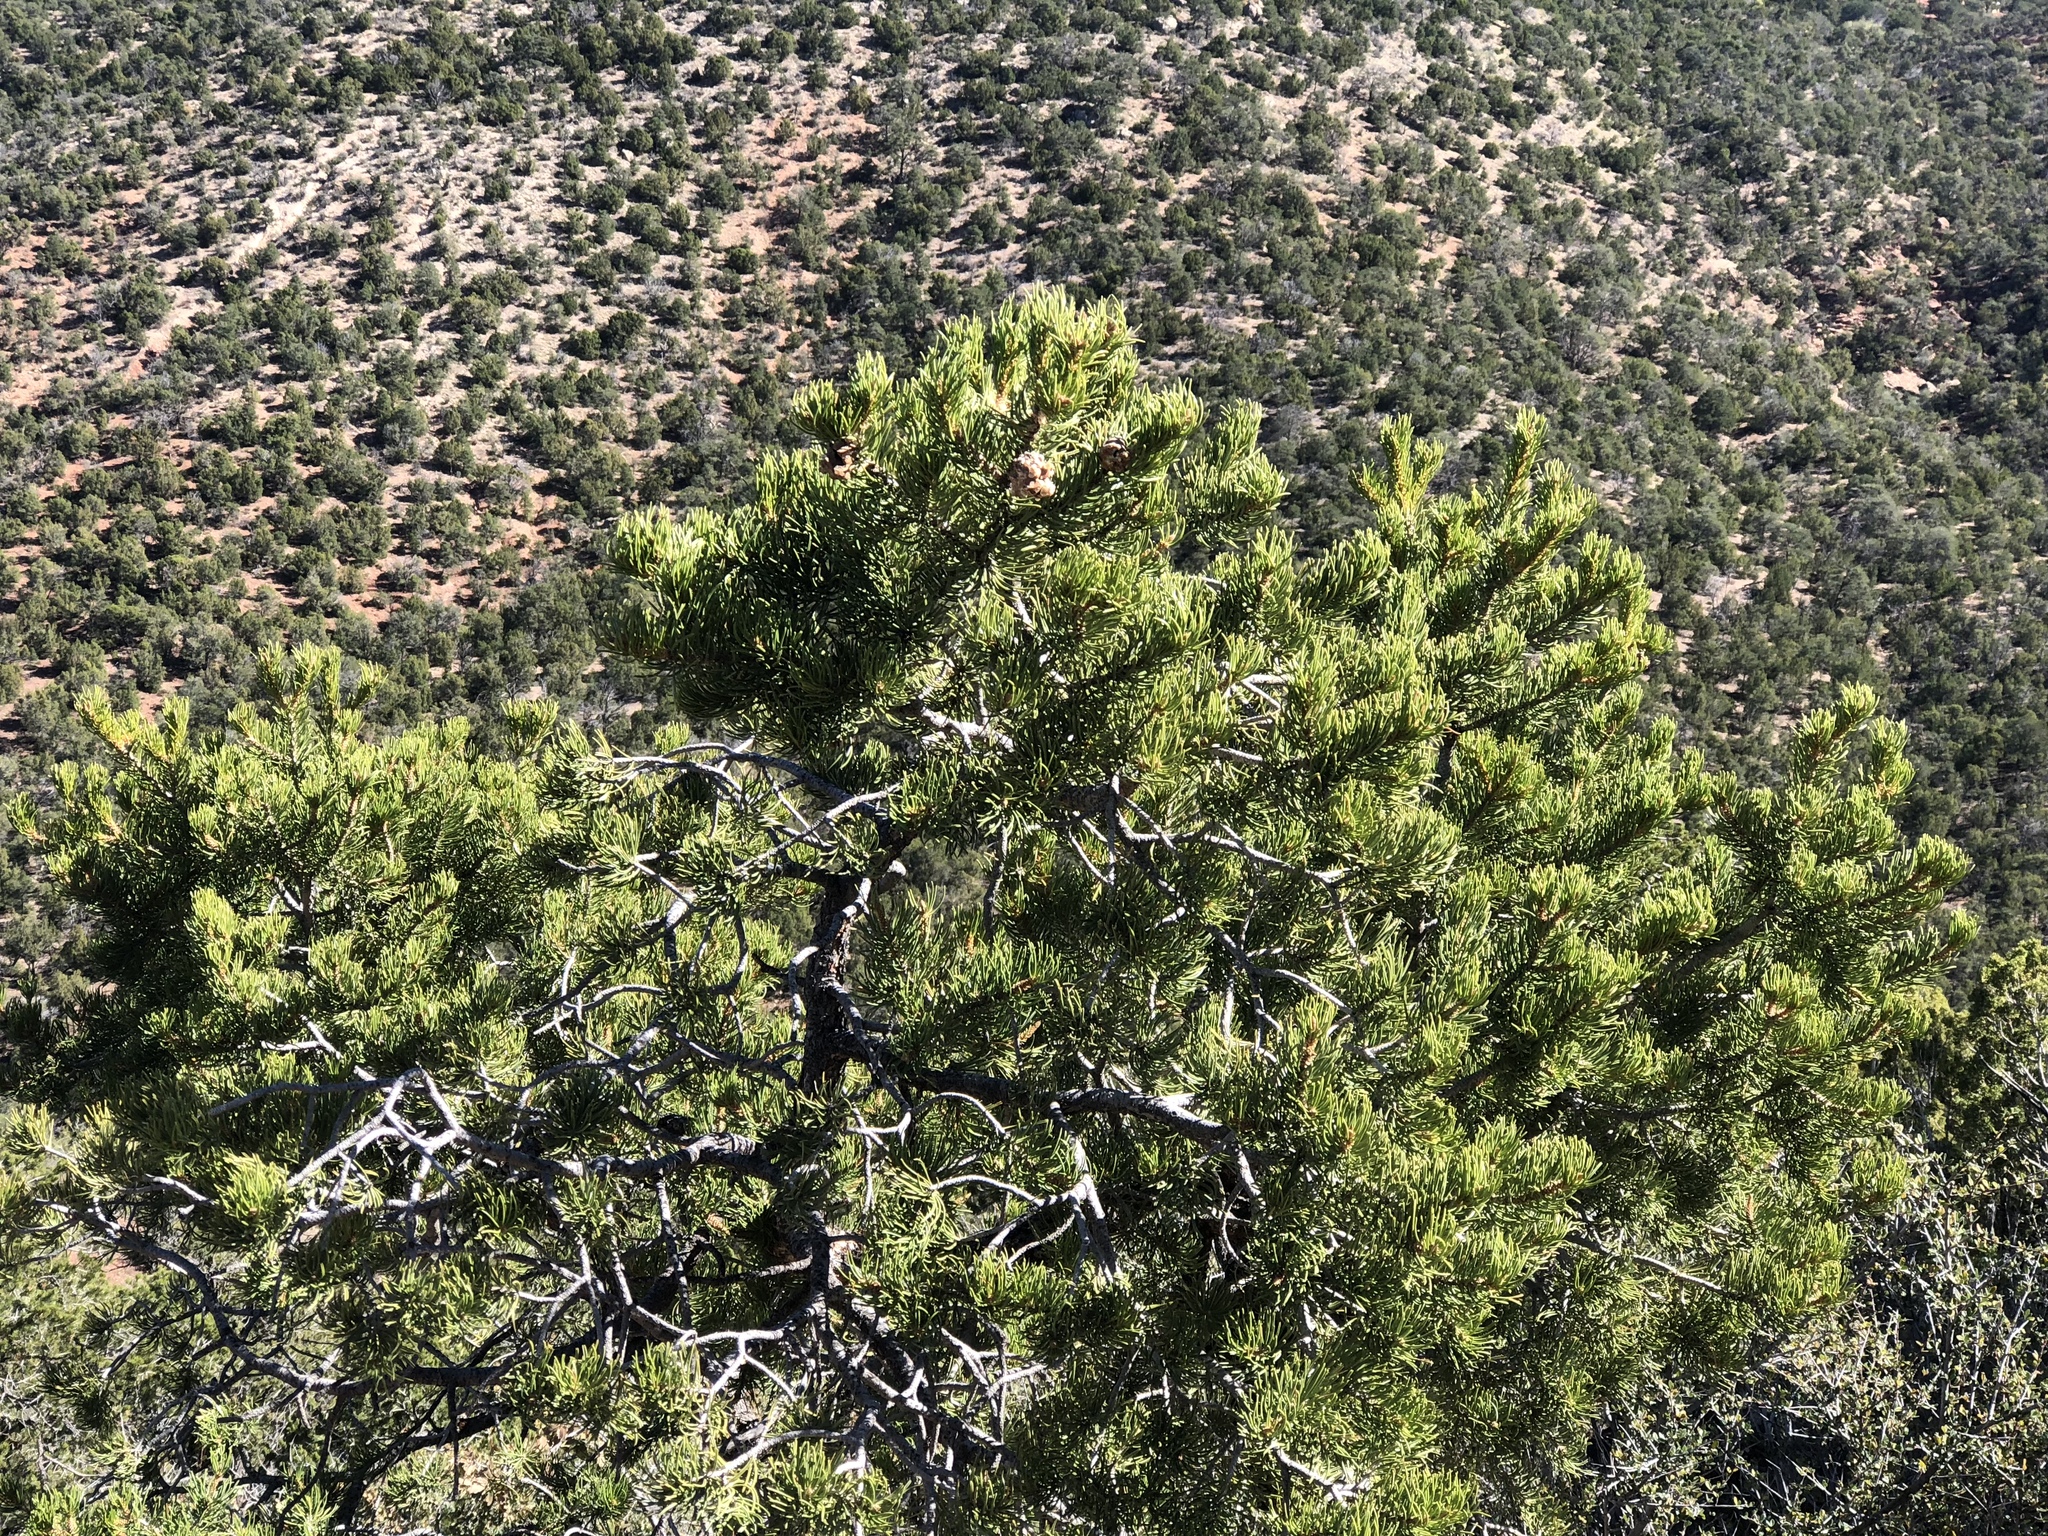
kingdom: Plantae
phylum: Tracheophyta
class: Pinopsida
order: Pinales
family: Pinaceae
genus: Pinus
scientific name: Pinus edulis
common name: Colorado pinyon
